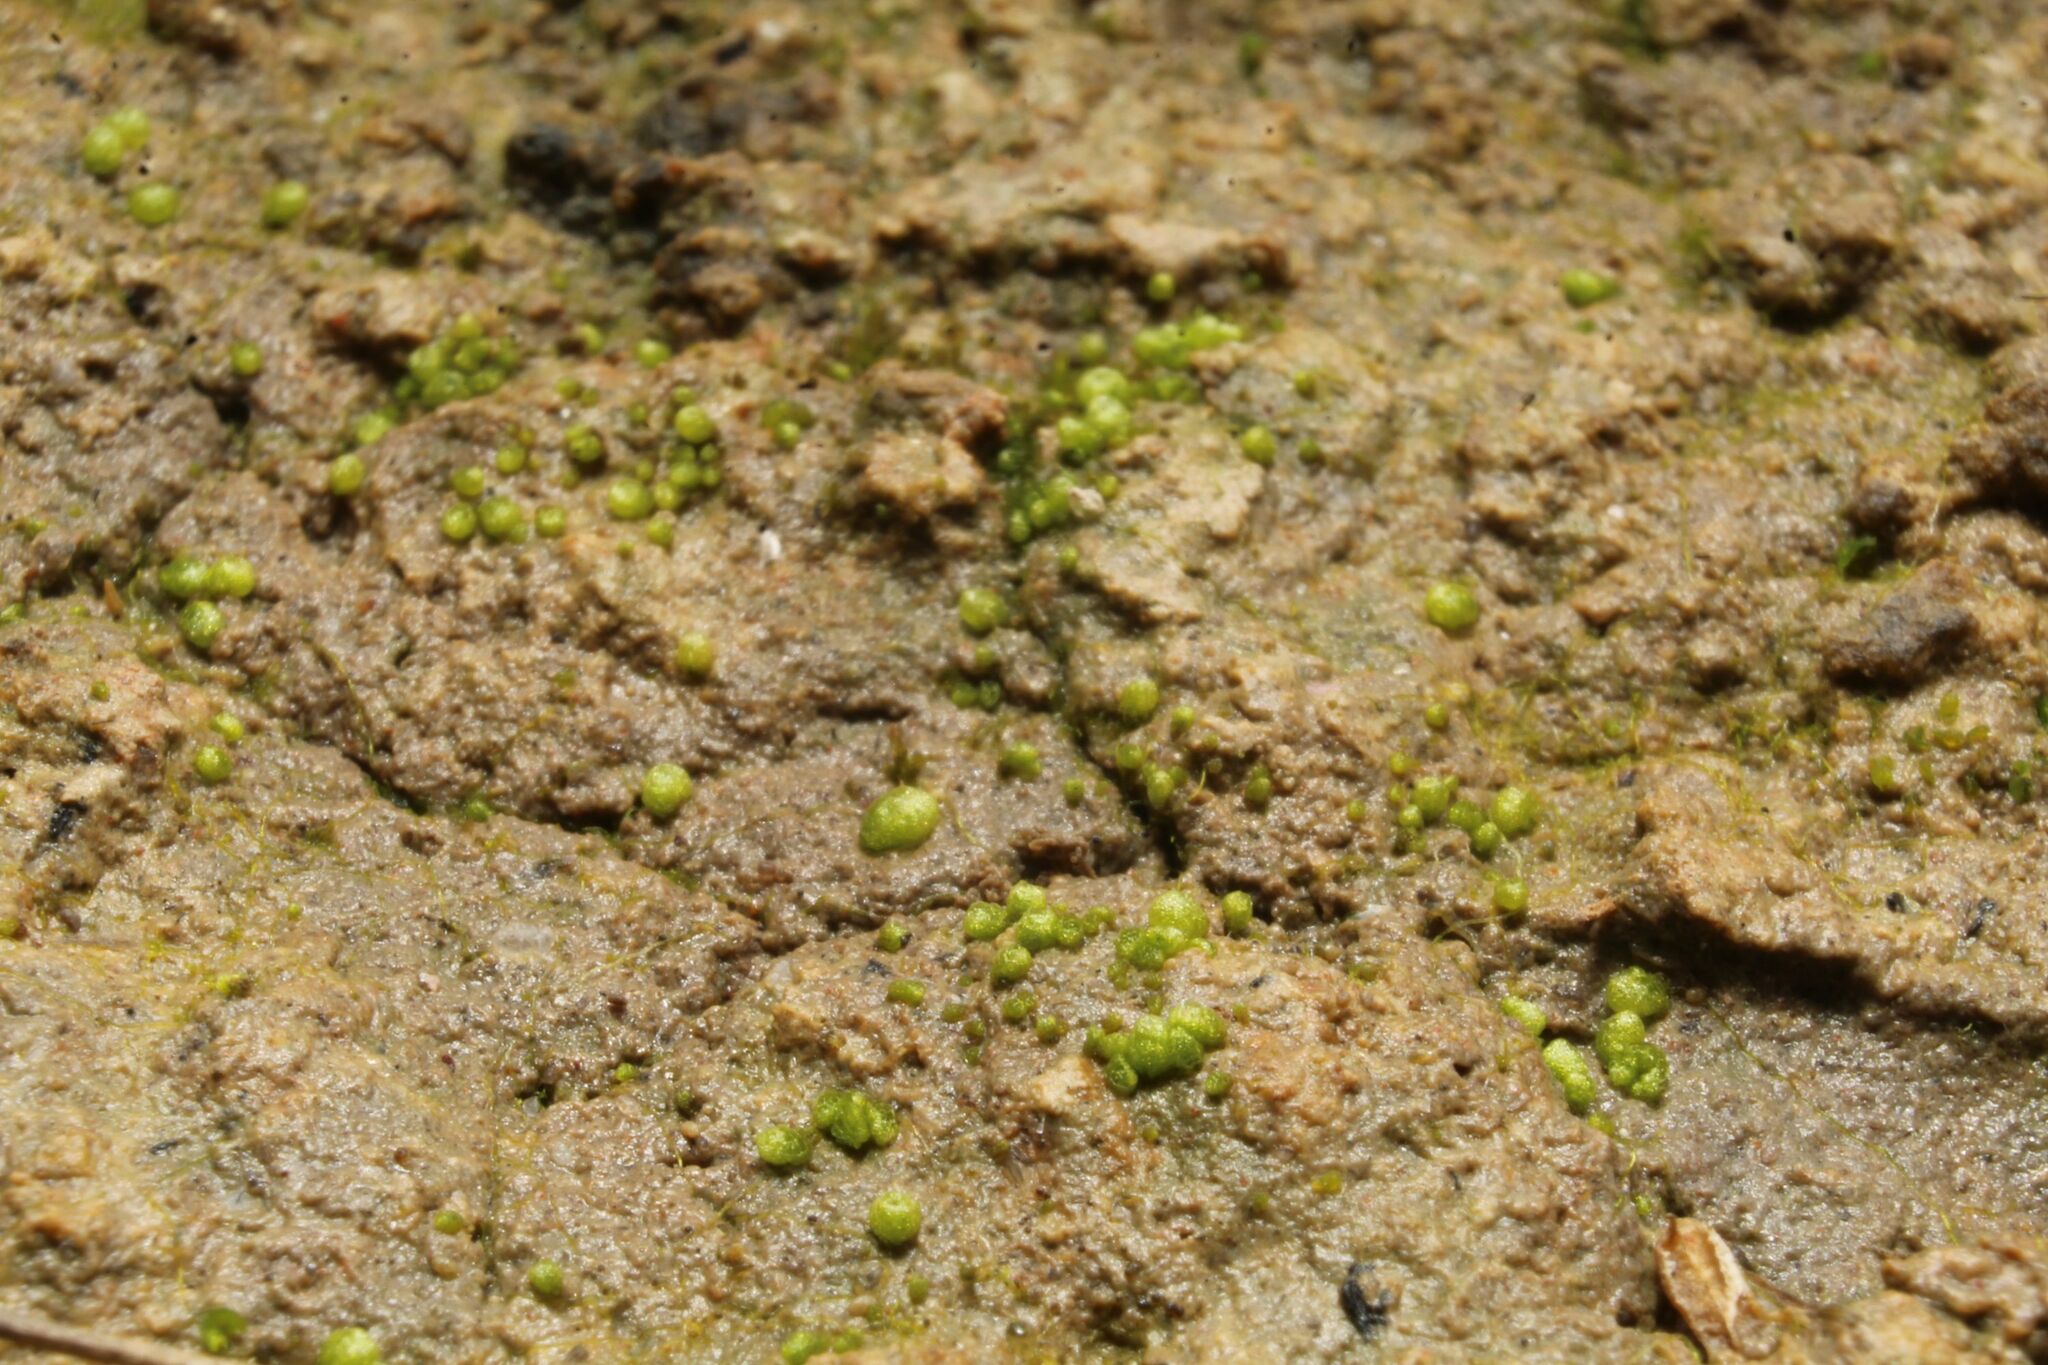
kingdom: Plantae
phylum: Marchantiophyta
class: Marchantiopsida
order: Sphaerocarpales
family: Monocarpaceae
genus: Monocarpus
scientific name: Monocarpus sphaerocarpus
